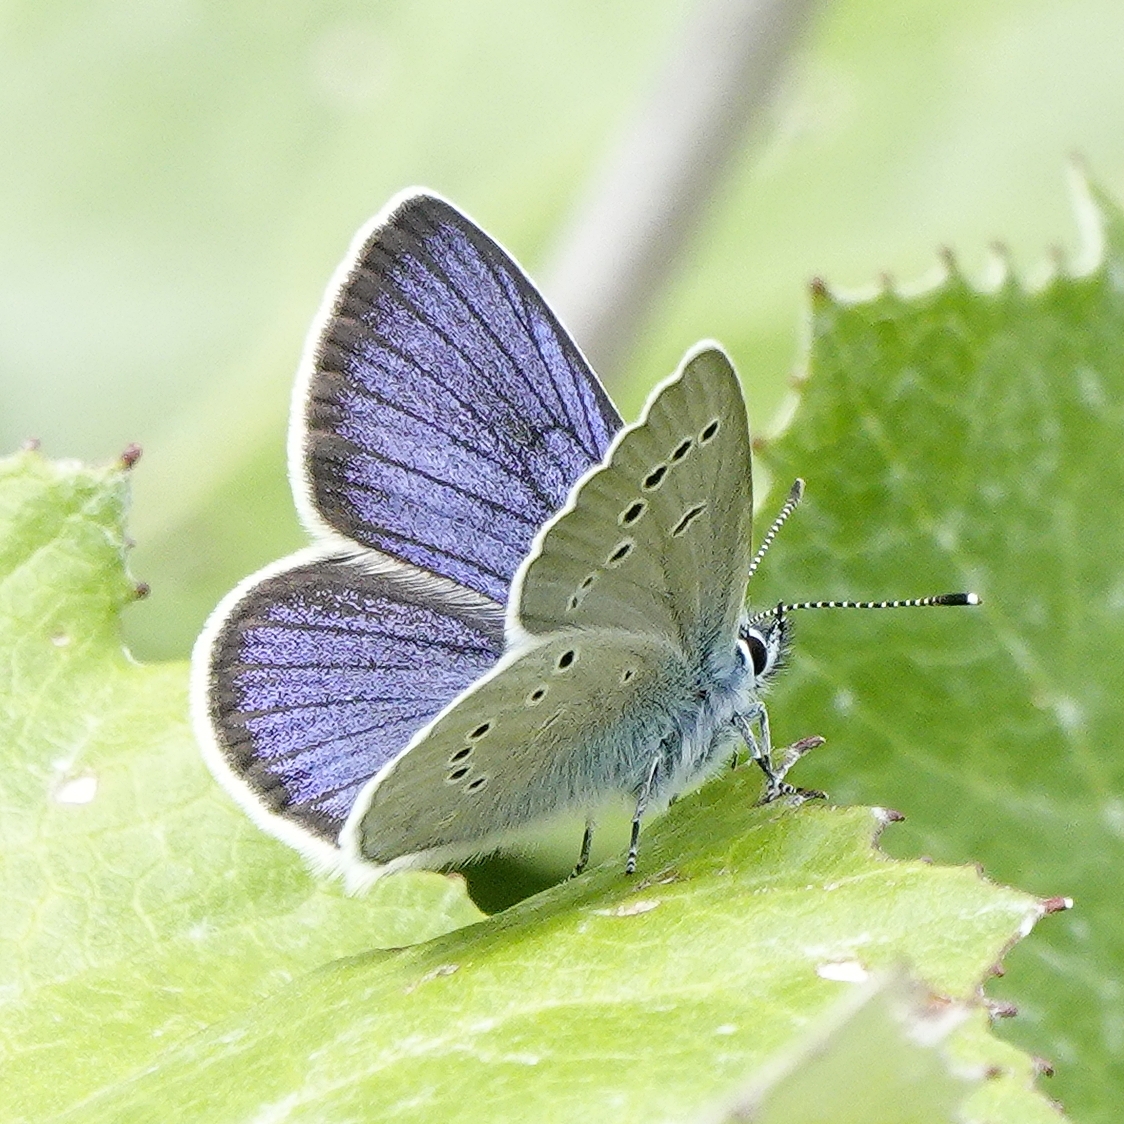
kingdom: Animalia
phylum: Arthropoda
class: Insecta
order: Lepidoptera
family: Lycaenidae
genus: Cyaniris
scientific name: Cyaniris semiargus
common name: Mazarine blue
